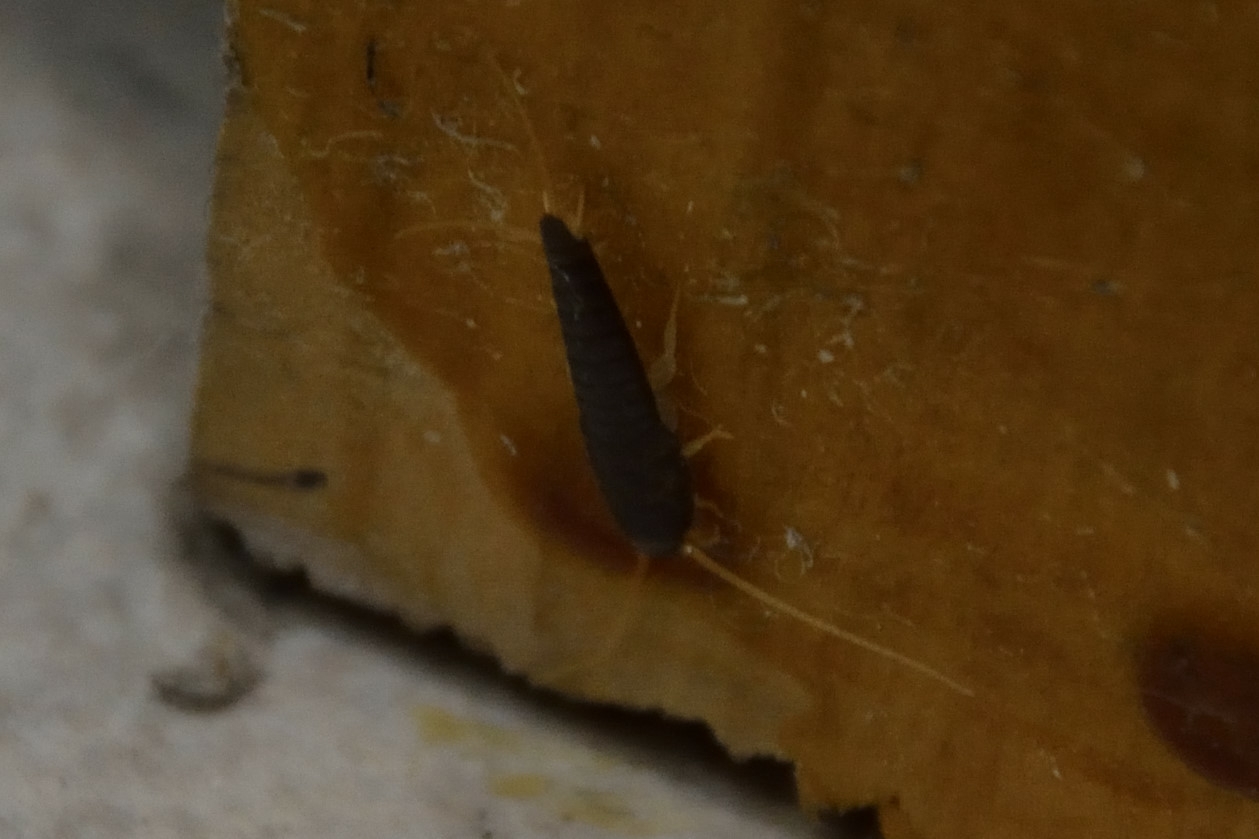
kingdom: Animalia
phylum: Arthropoda
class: Insecta
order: Zygentoma
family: Lepismatidae
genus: Lepisma
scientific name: Lepisma saccharinum
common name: Silverfish
